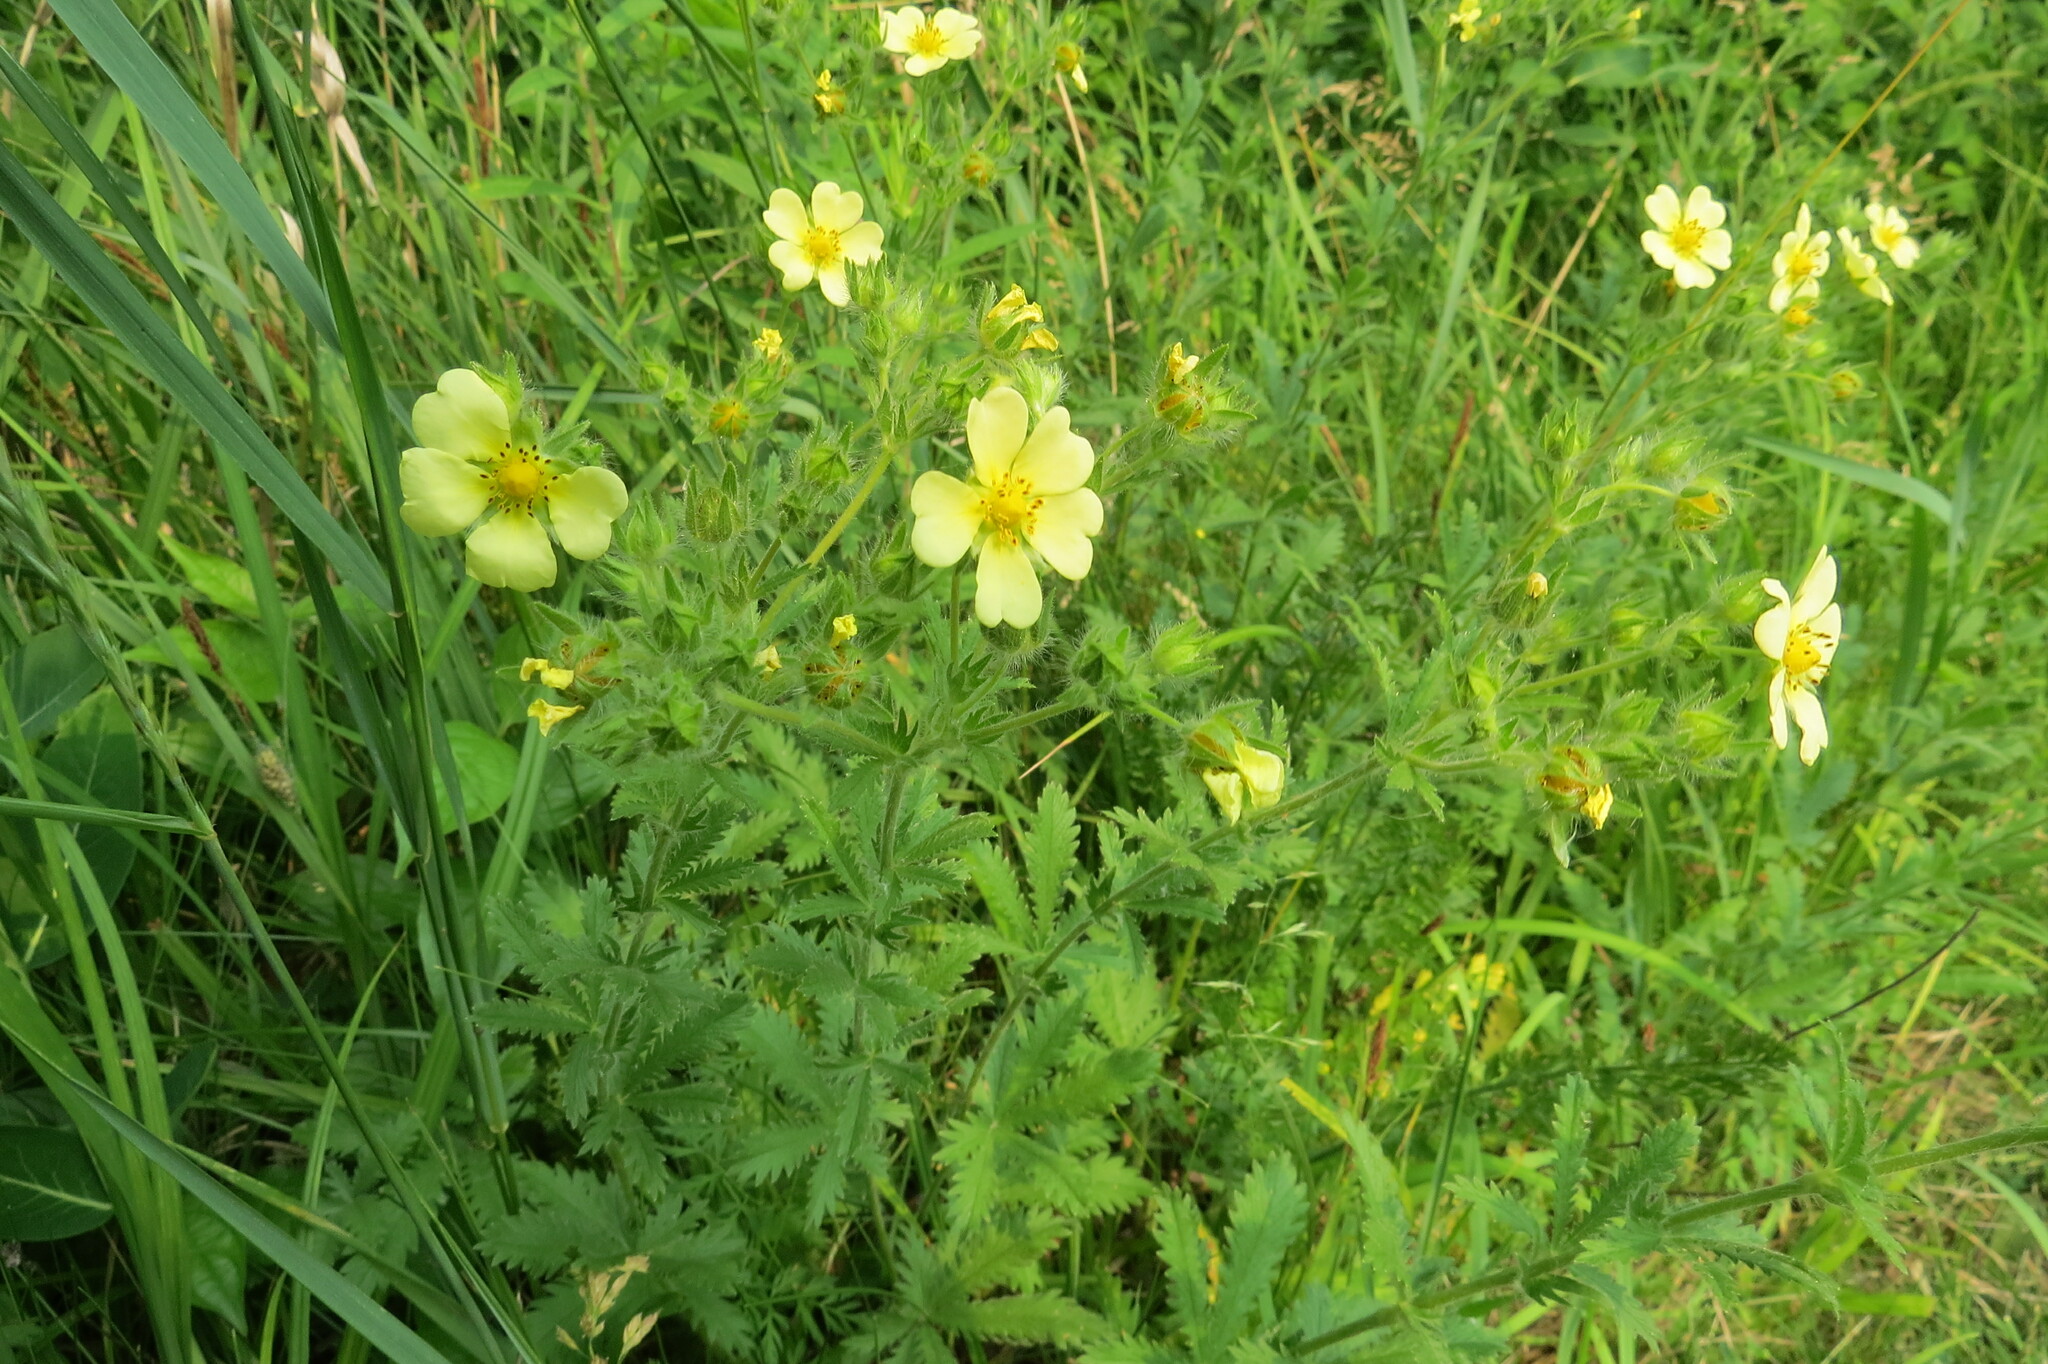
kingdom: Plantae
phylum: Tracheophyta
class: Magnoliopsida
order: Rosales
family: Rosaceae
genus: Potentilla
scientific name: Potentilla recta
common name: Sulphur cinquefoil
